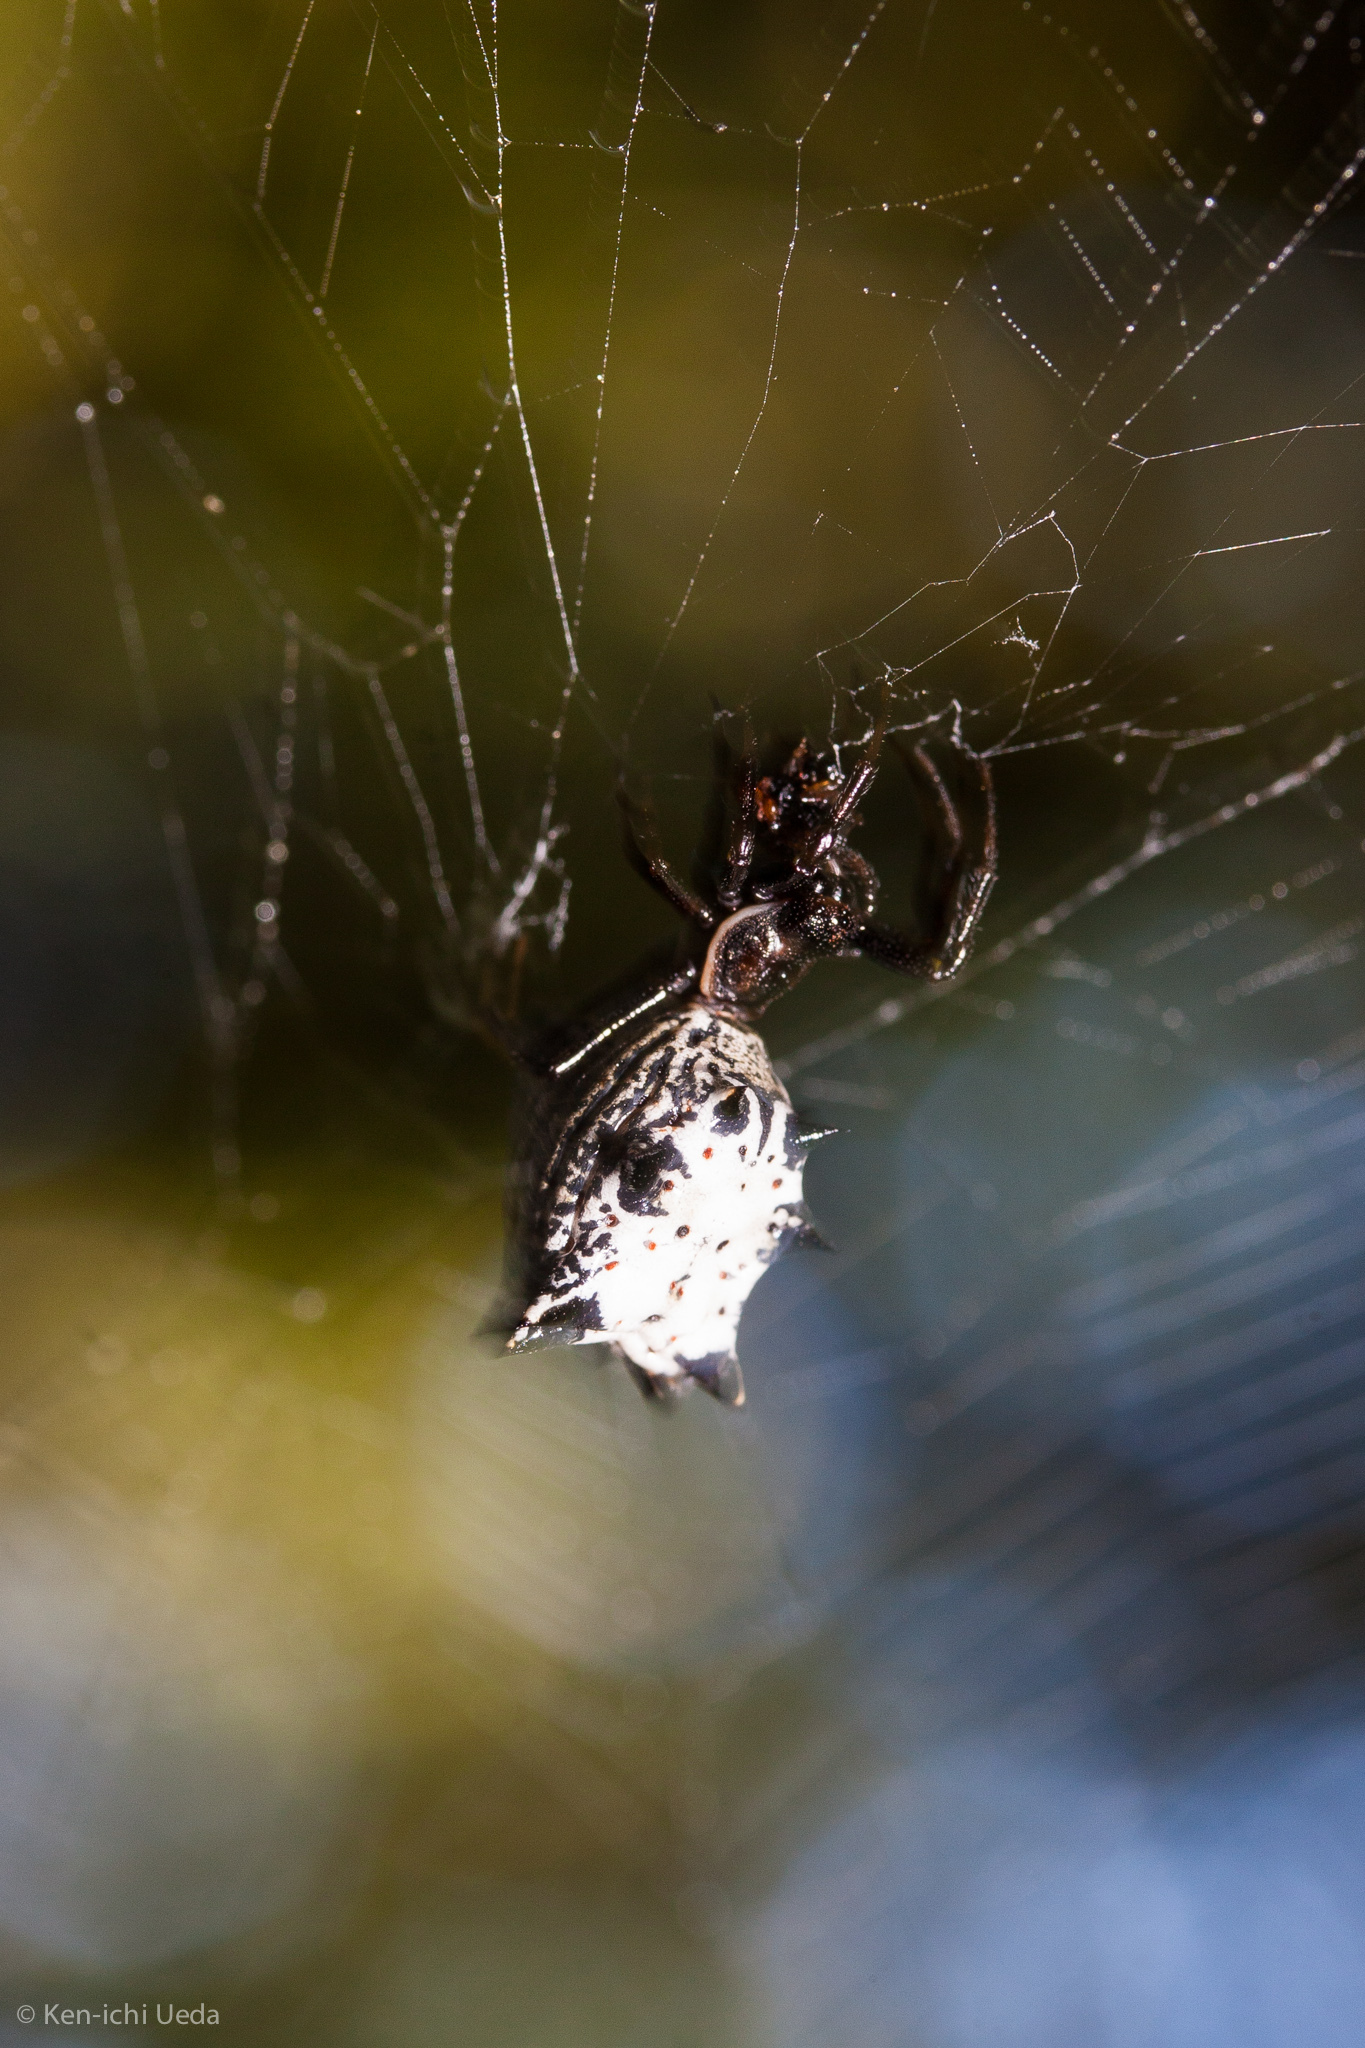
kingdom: Animalia
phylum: Arthropoda
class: Arachnida
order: Araneae
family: Araneidae
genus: Micrathena
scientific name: Micrathena gracilis
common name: Orb weavers
